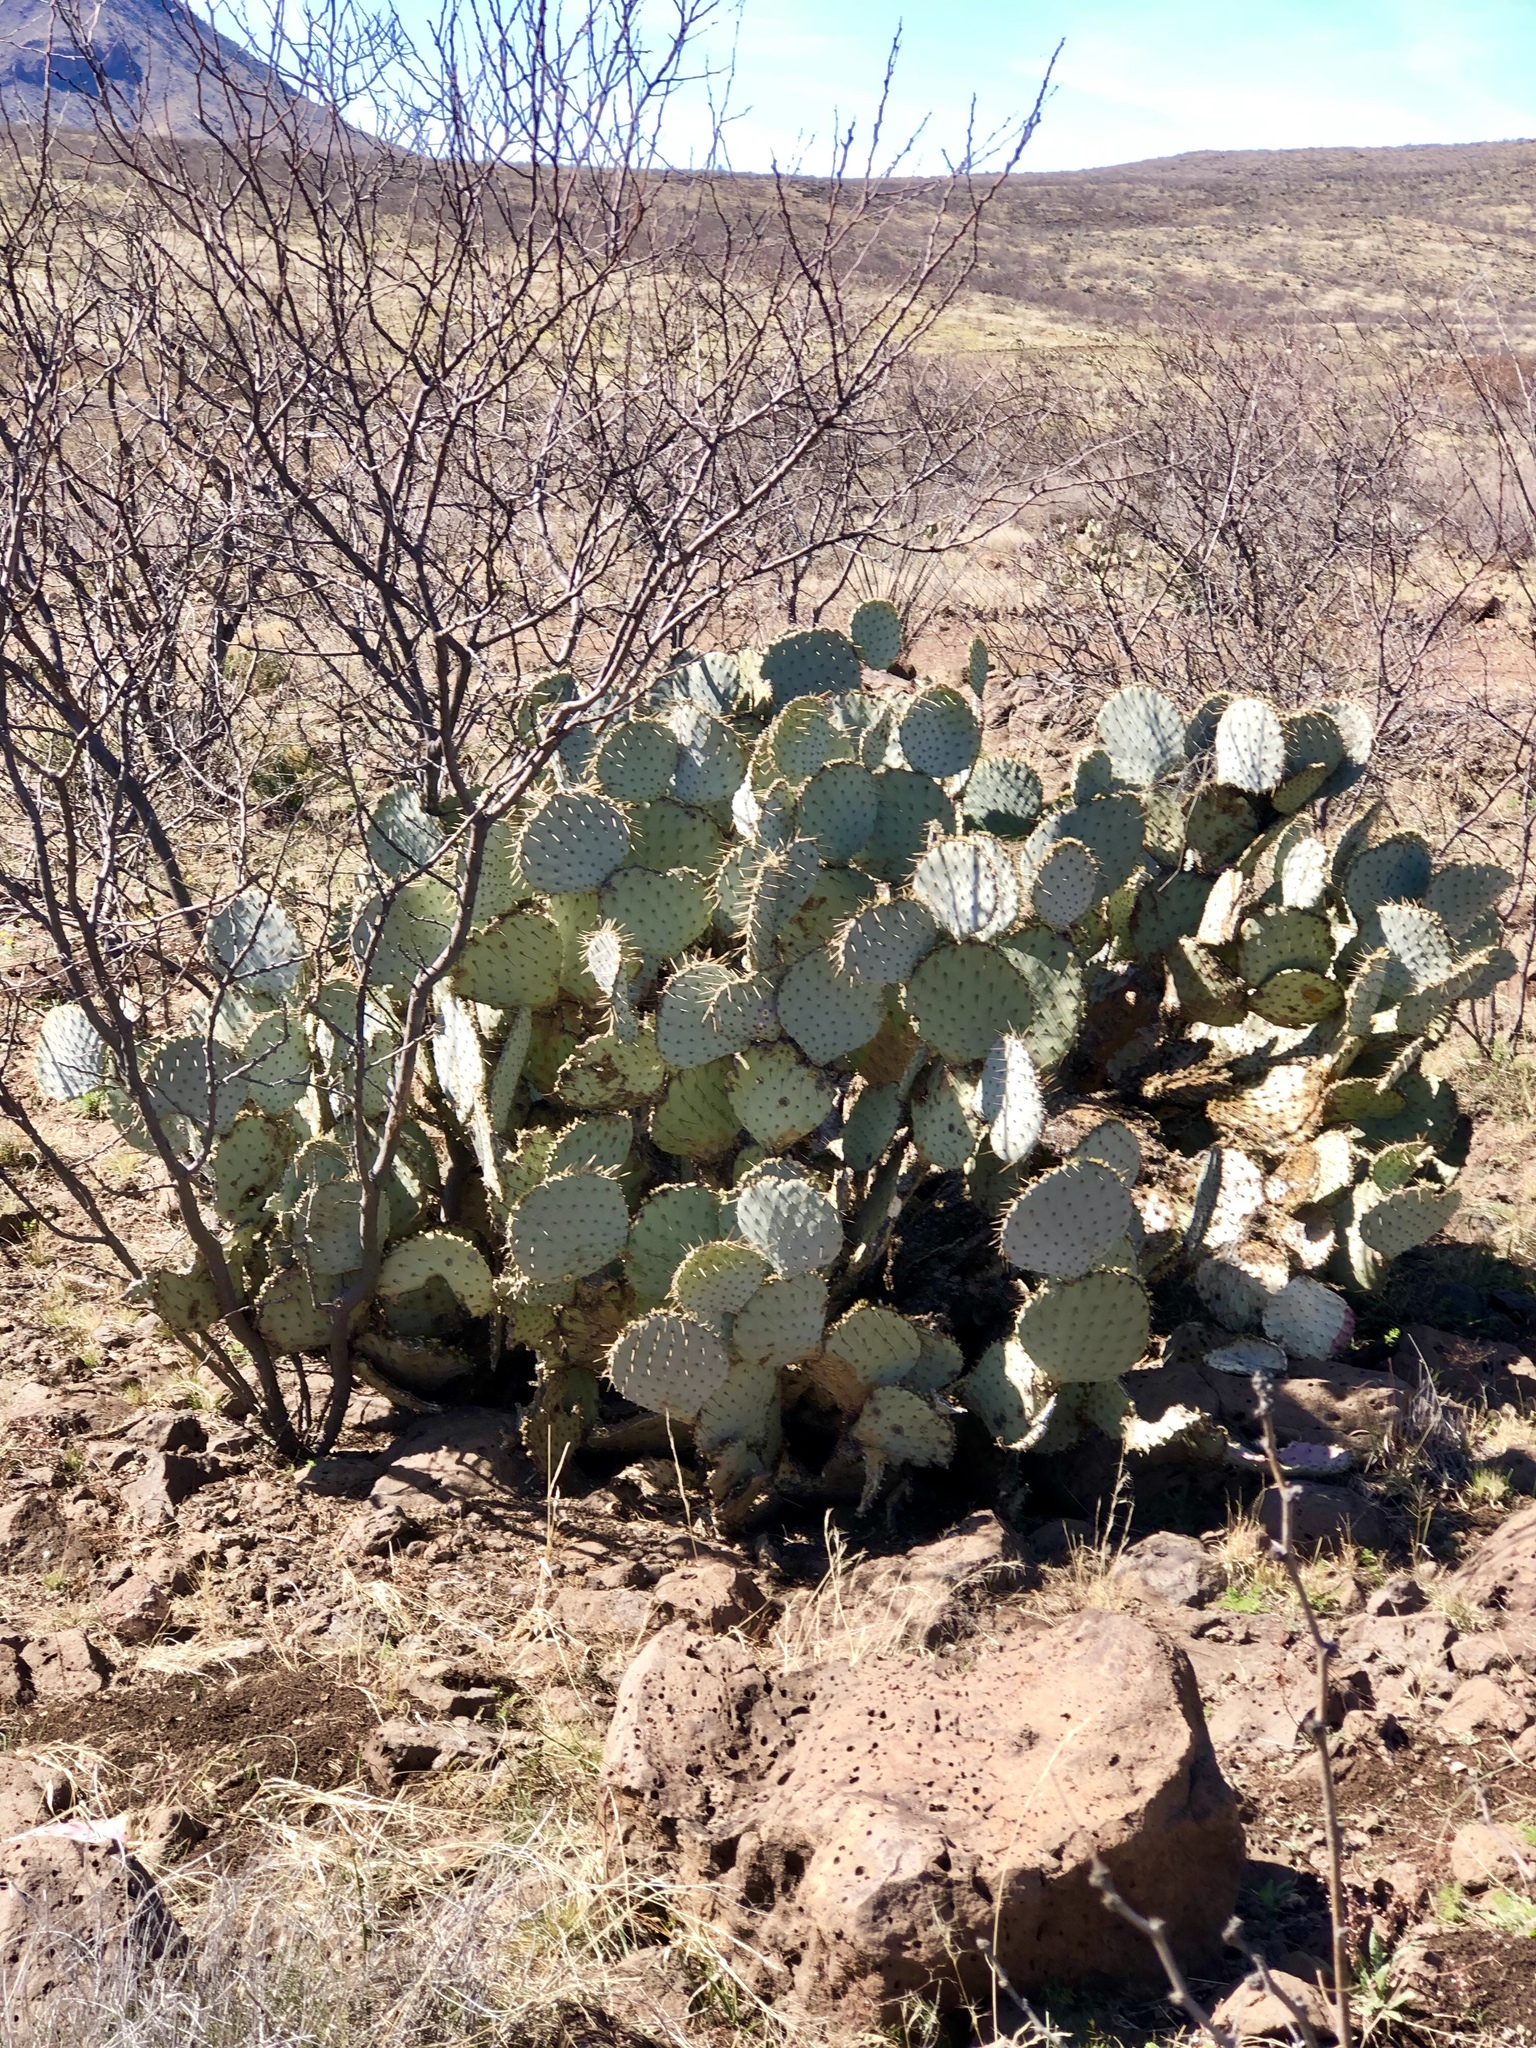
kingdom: Plantae
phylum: Tracheophyta
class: Magnoliopsida
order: Caryophyllales
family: Cactaceae
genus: Opuntia
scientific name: Opuntia gosseliniana
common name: Violet prickly-pear
